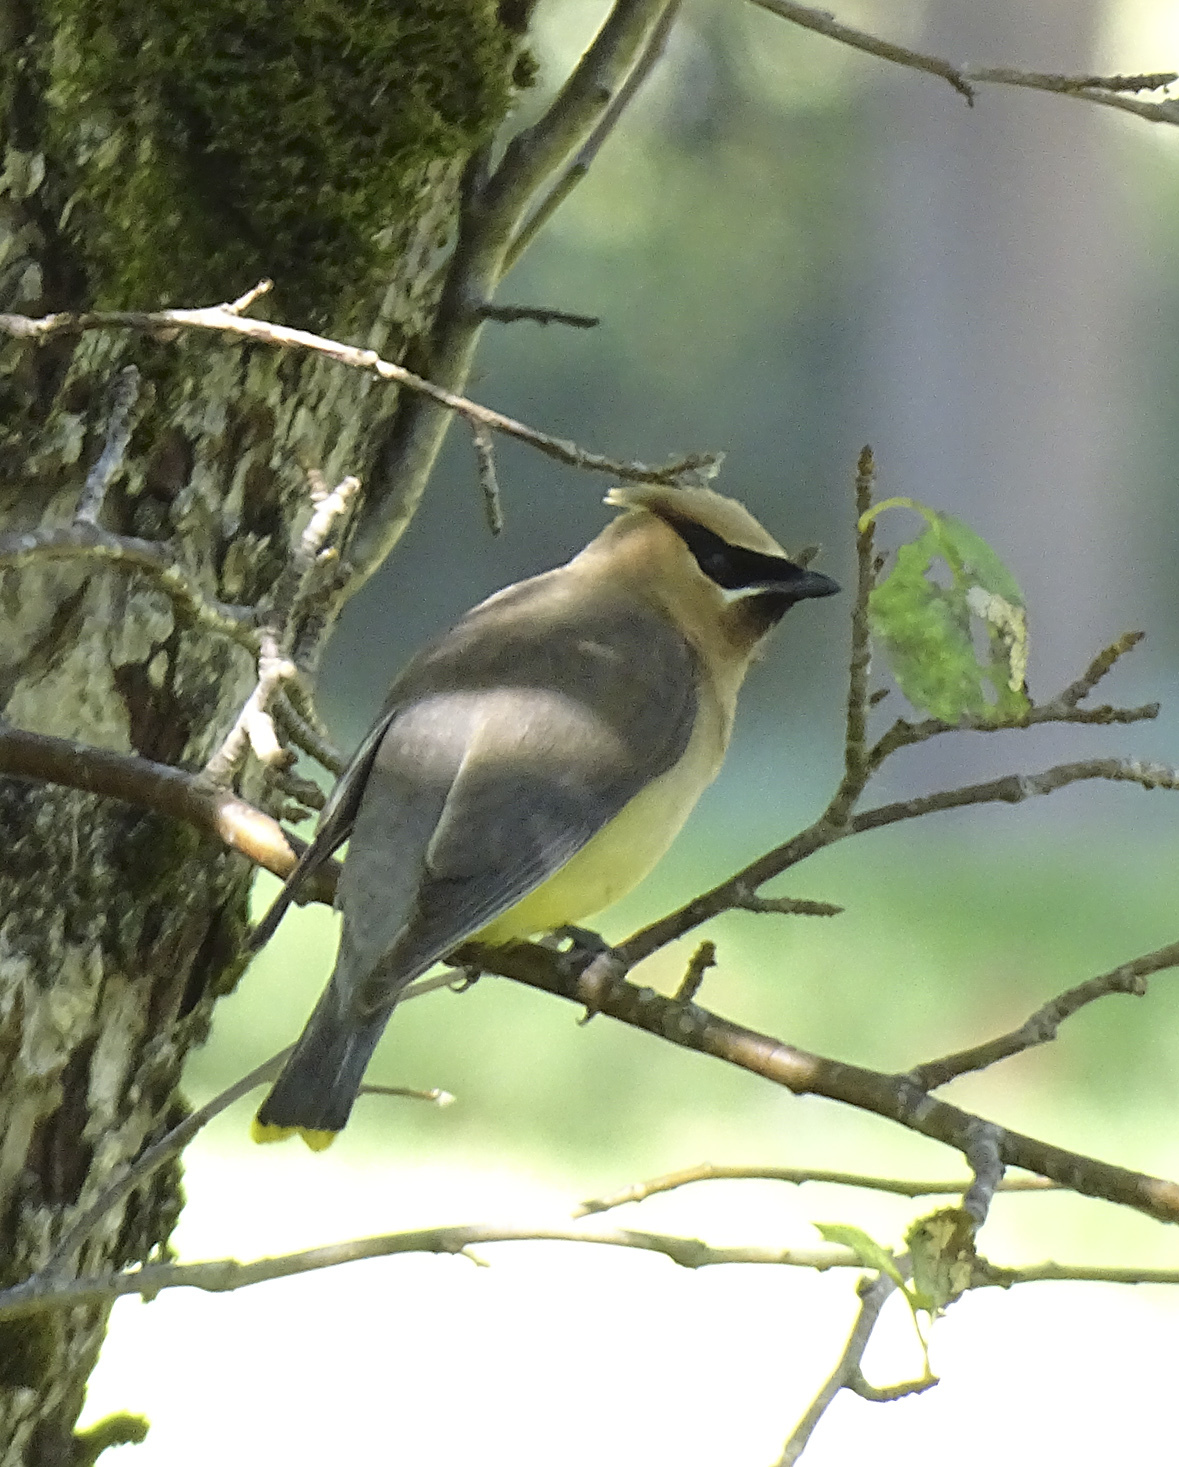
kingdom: Animalia
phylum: Chordata
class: Aves
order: Passeriformes
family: Bombycillidae
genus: Bombycilla
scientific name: Bombycilla cedrorum
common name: Cedar waxwing
